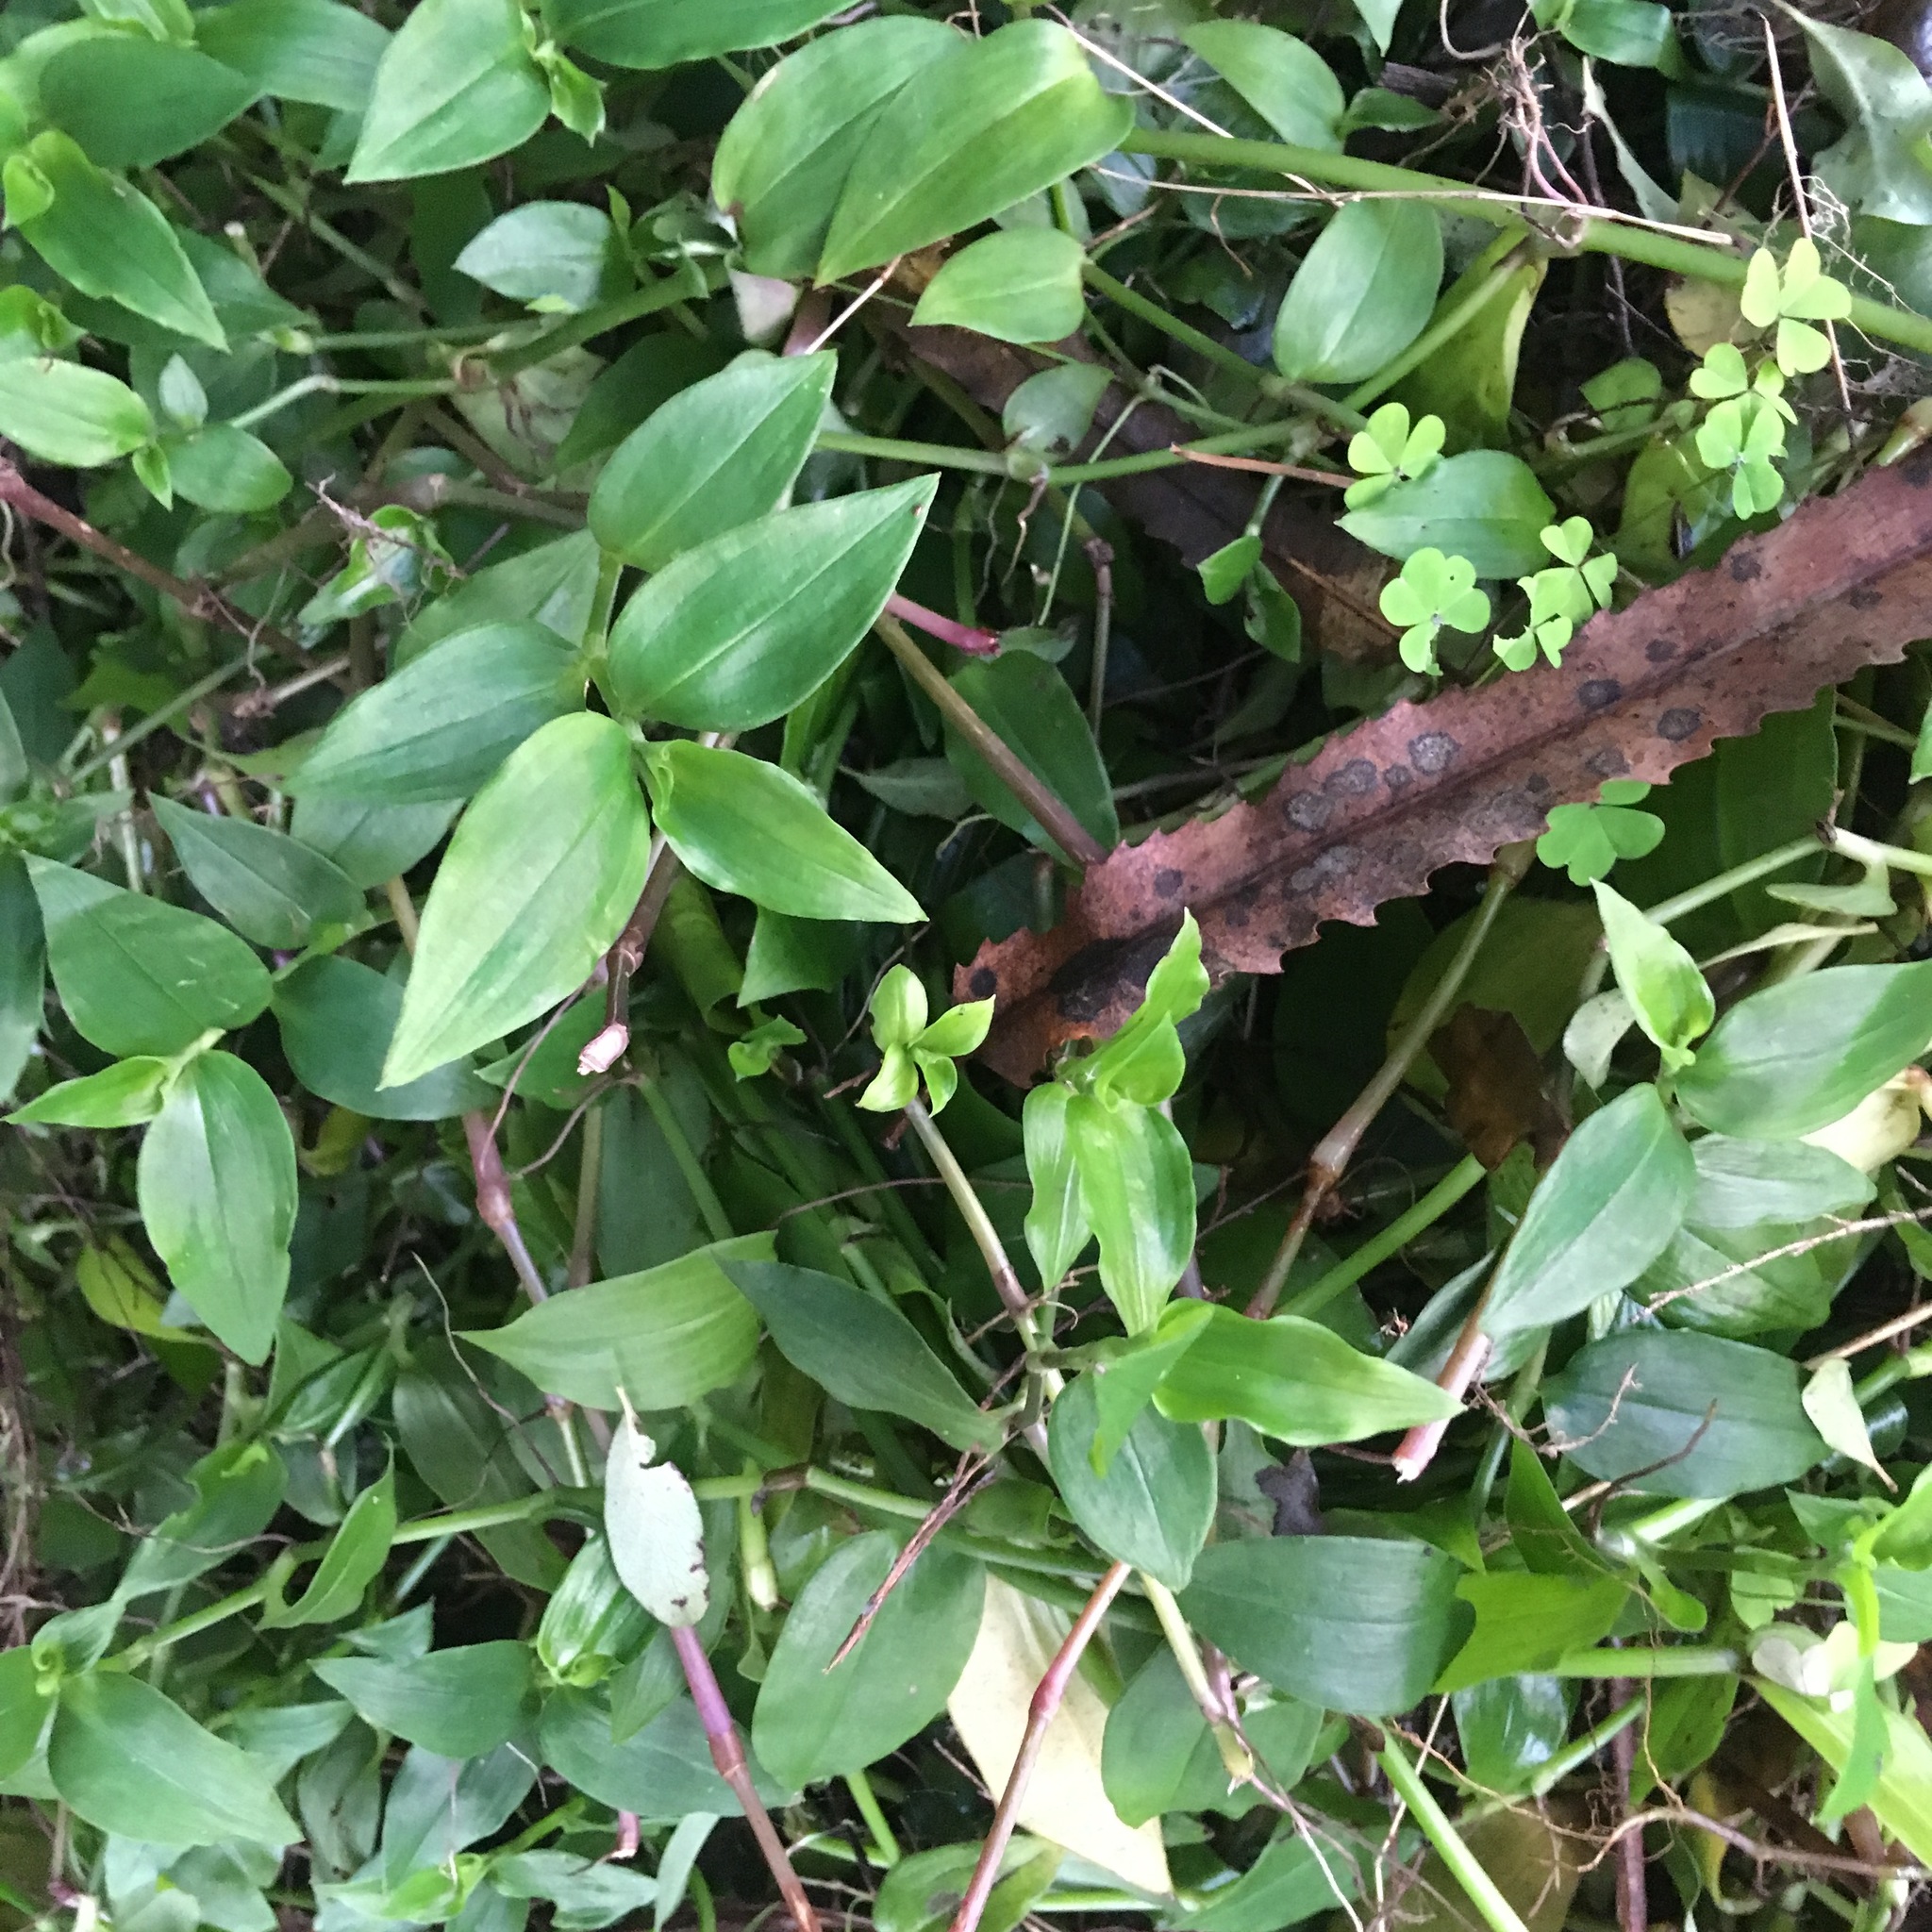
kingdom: Plantae
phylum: Tracheophyta
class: Liliopsida
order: Commelinales
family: Commelinaceae
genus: Tradescantia
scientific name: Tradescantia fluminensis
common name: Wandering-jew
